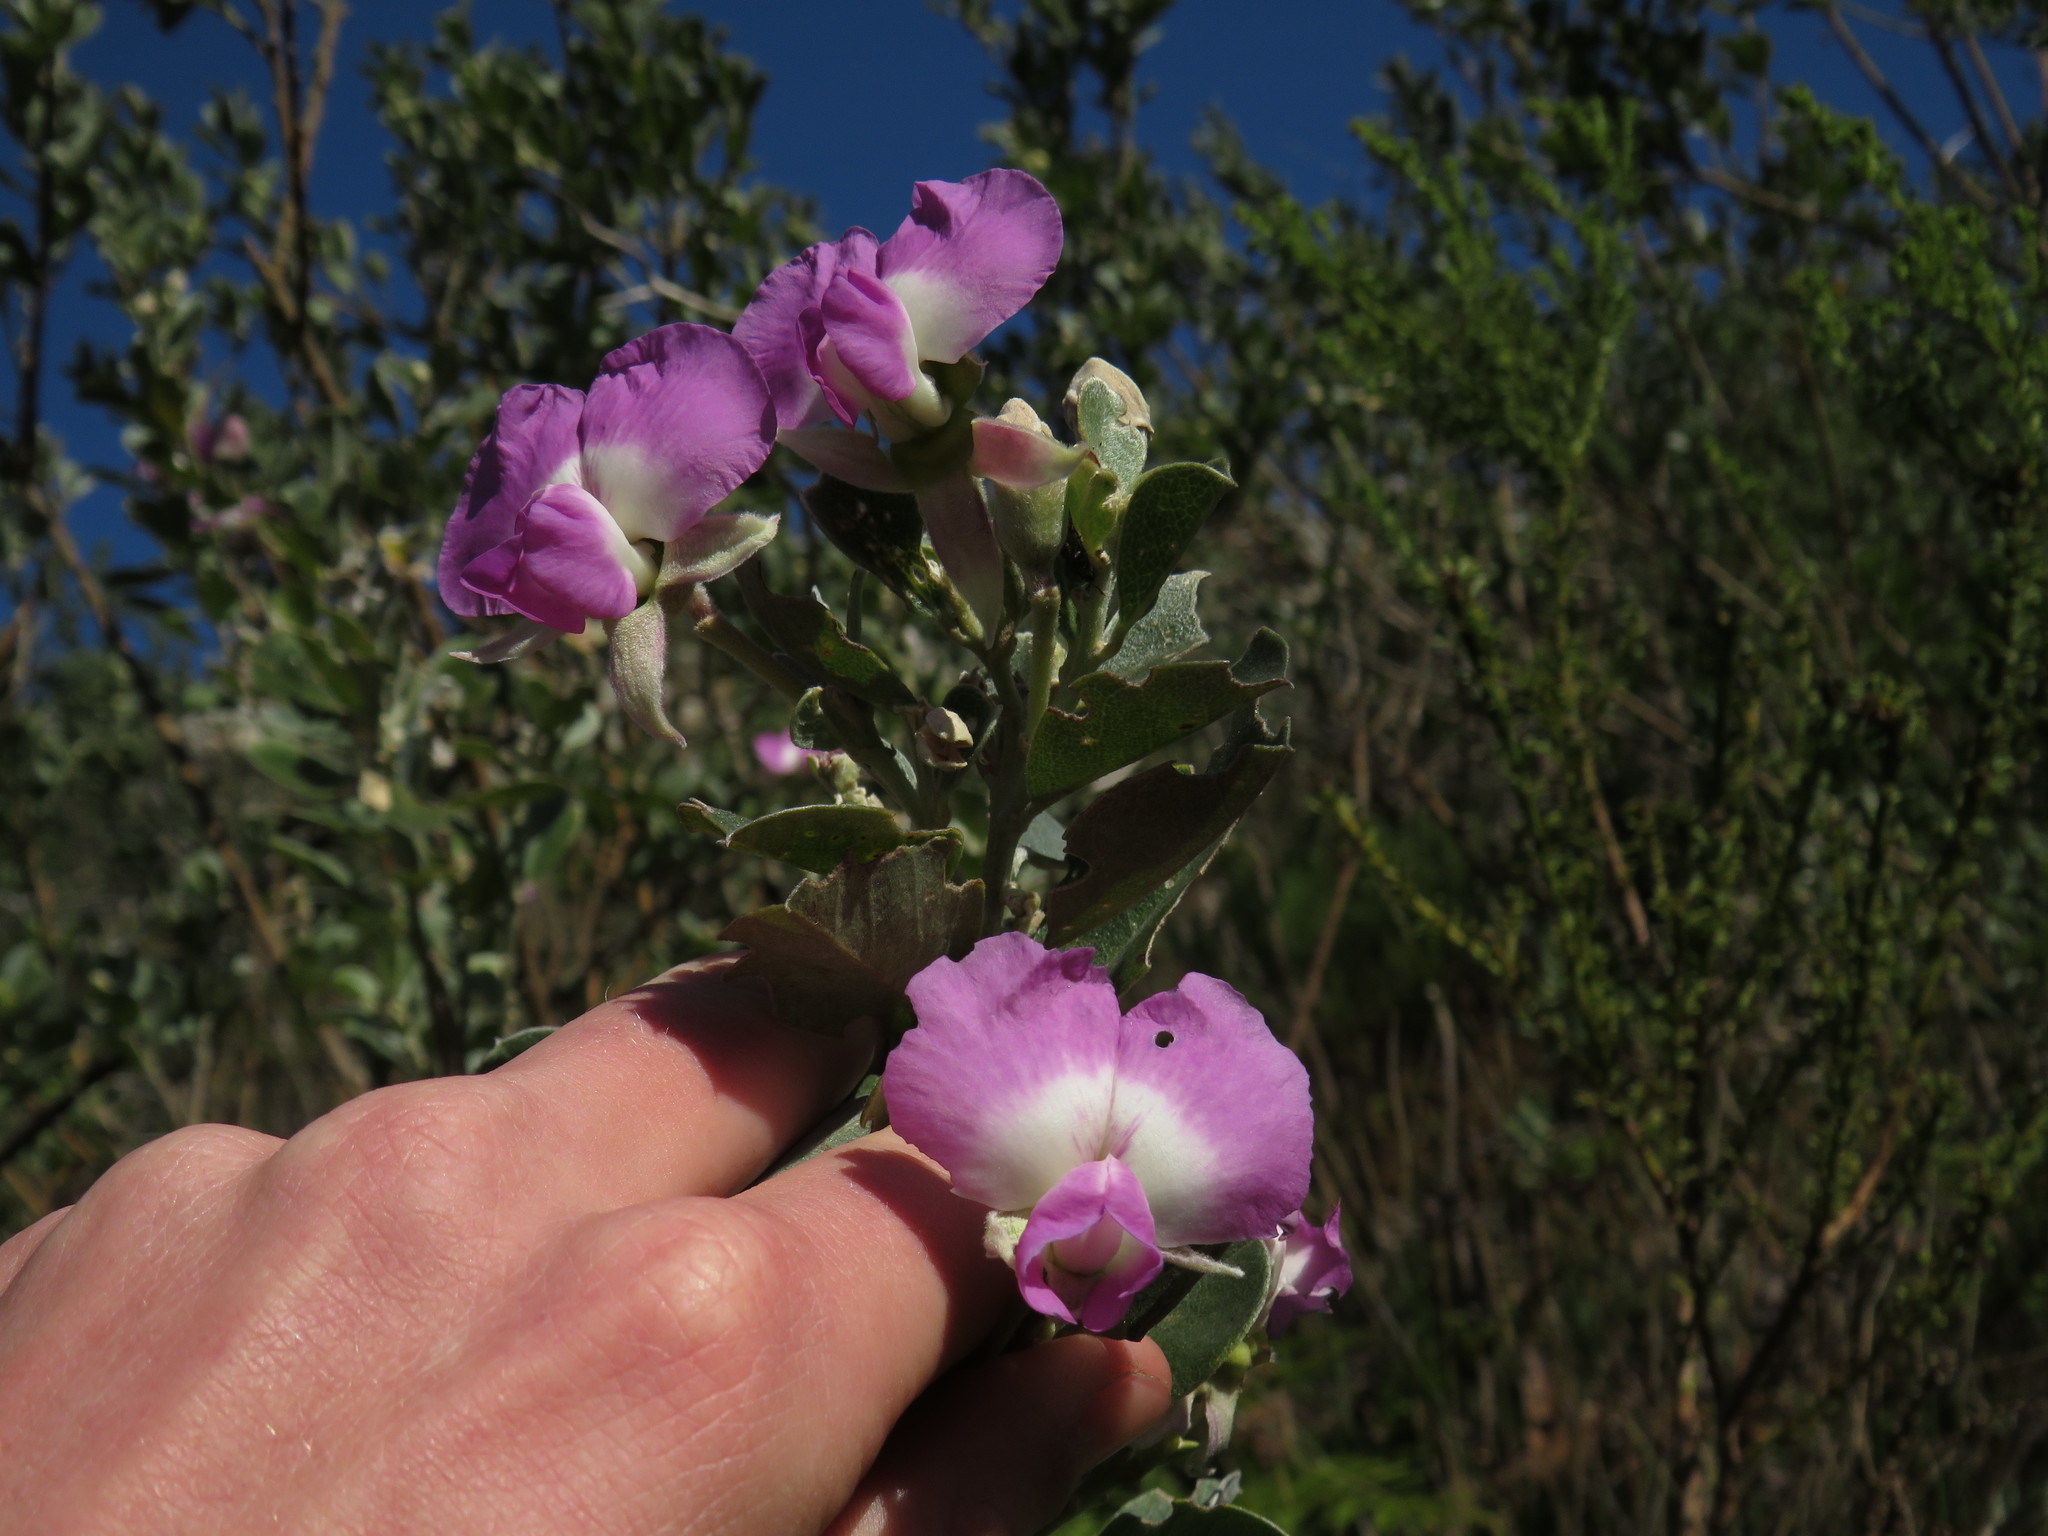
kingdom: Plantae
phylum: Tracheophyta
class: Magnoliopsida
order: Fabales
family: Fabaceae
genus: Podalyria
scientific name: Podalyria calyptrata
